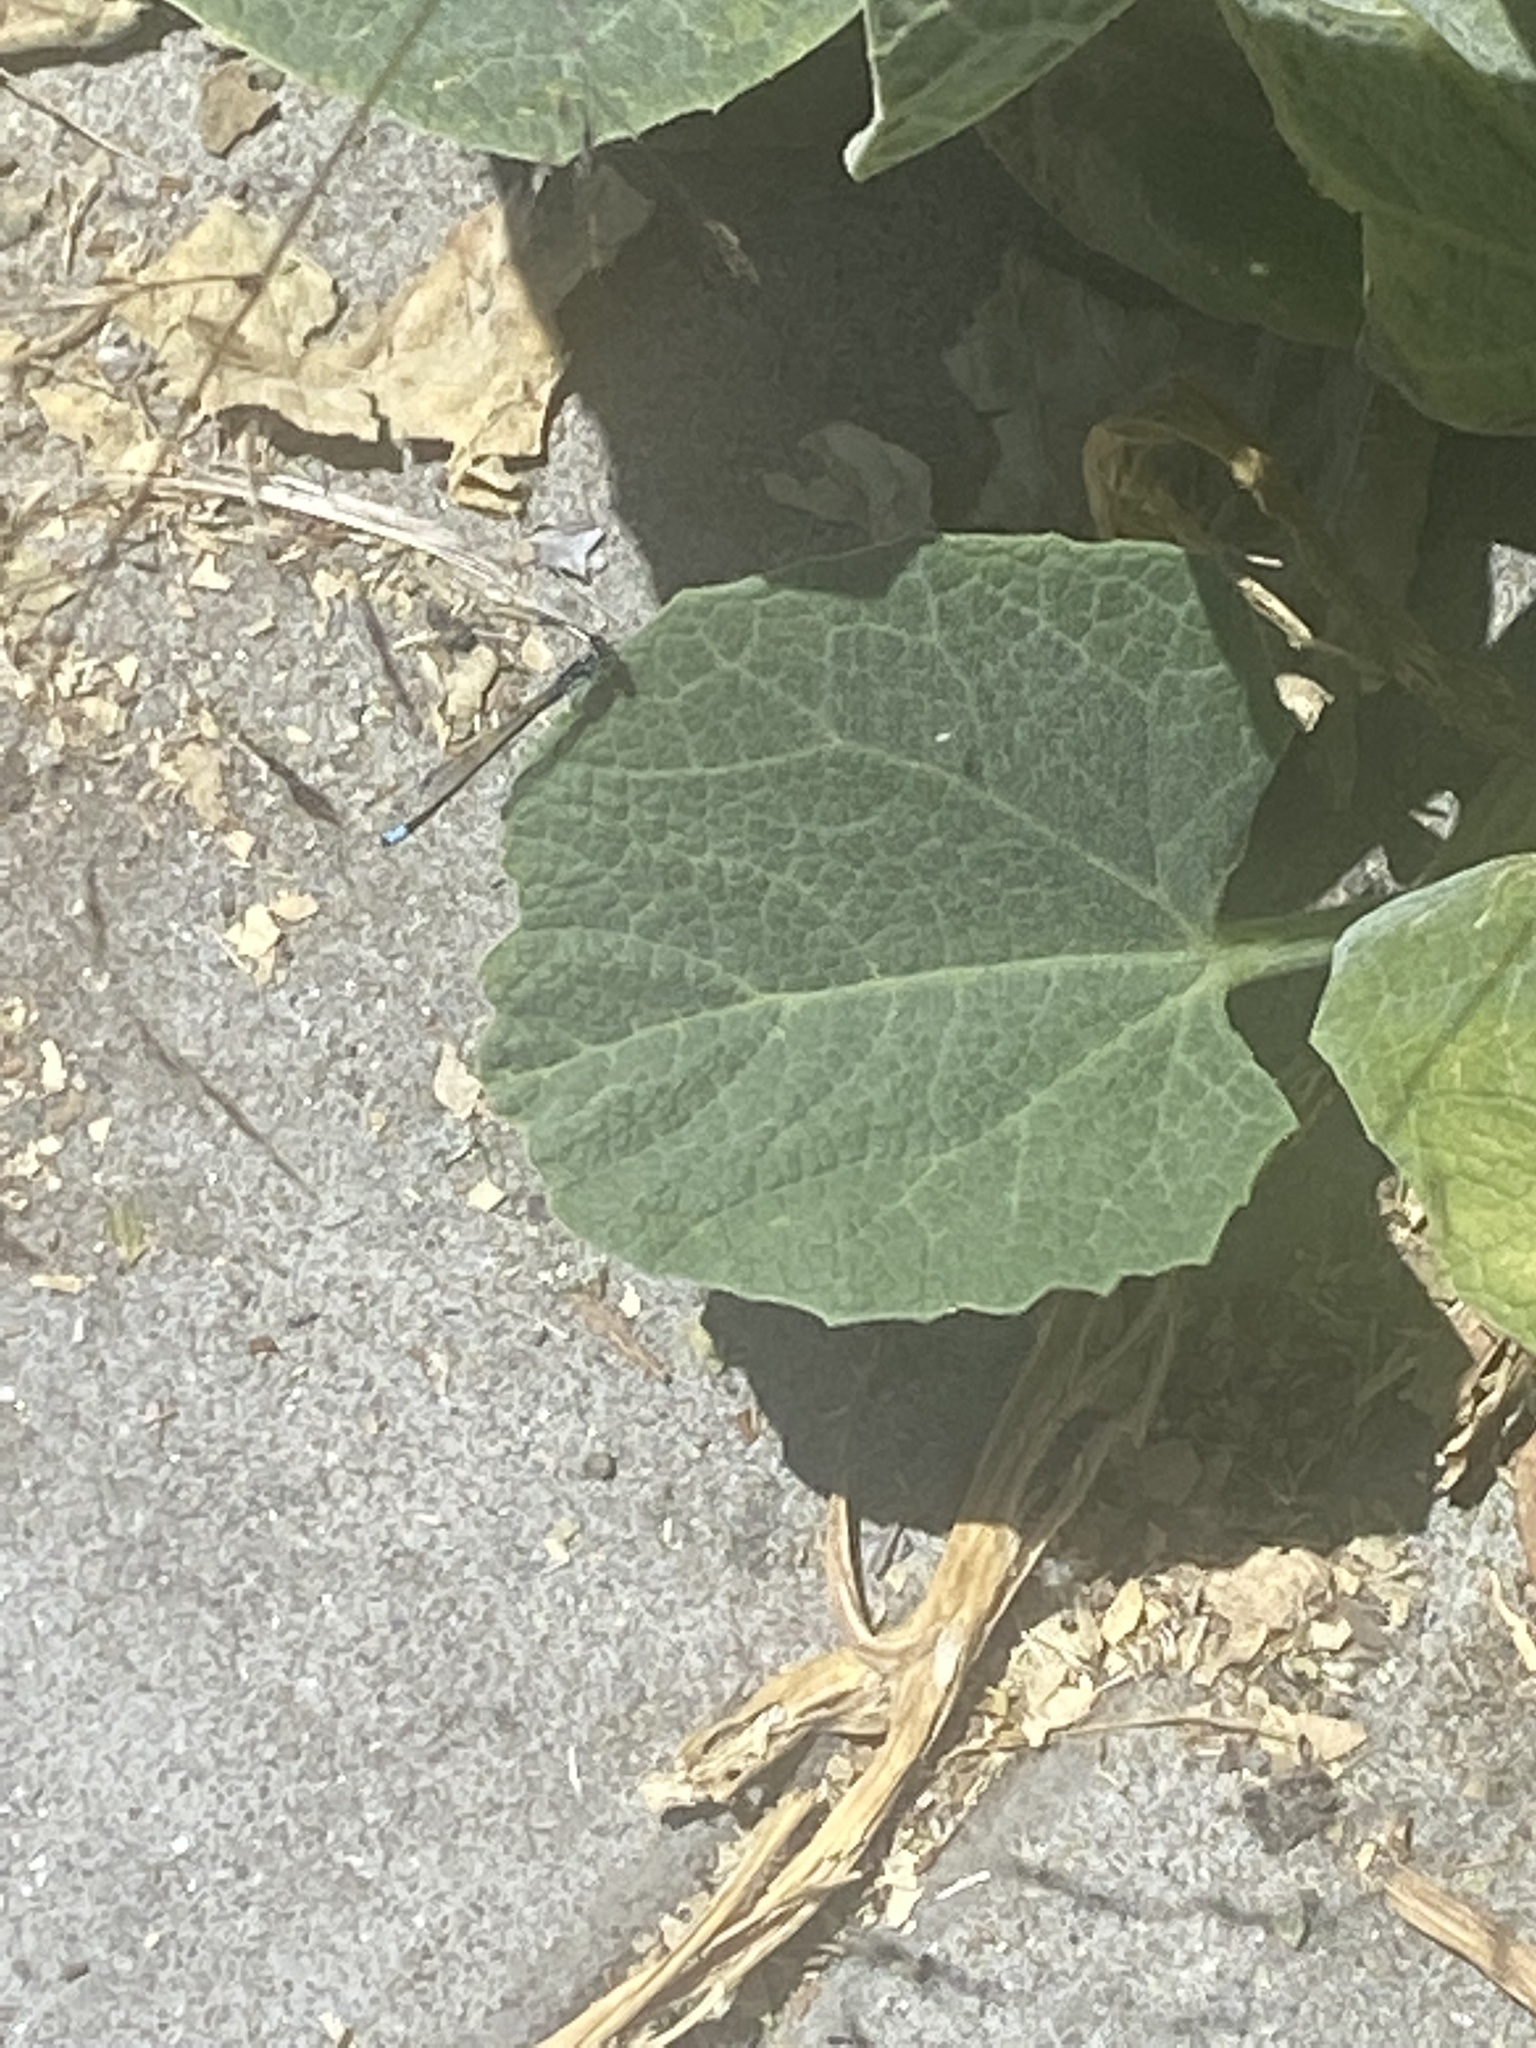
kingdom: Animalia
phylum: Arthropoda
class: Insecta
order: Odonata
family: Coenagrionidae
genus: Ischnura
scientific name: Ischnura cervula
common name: Pacific forktail
